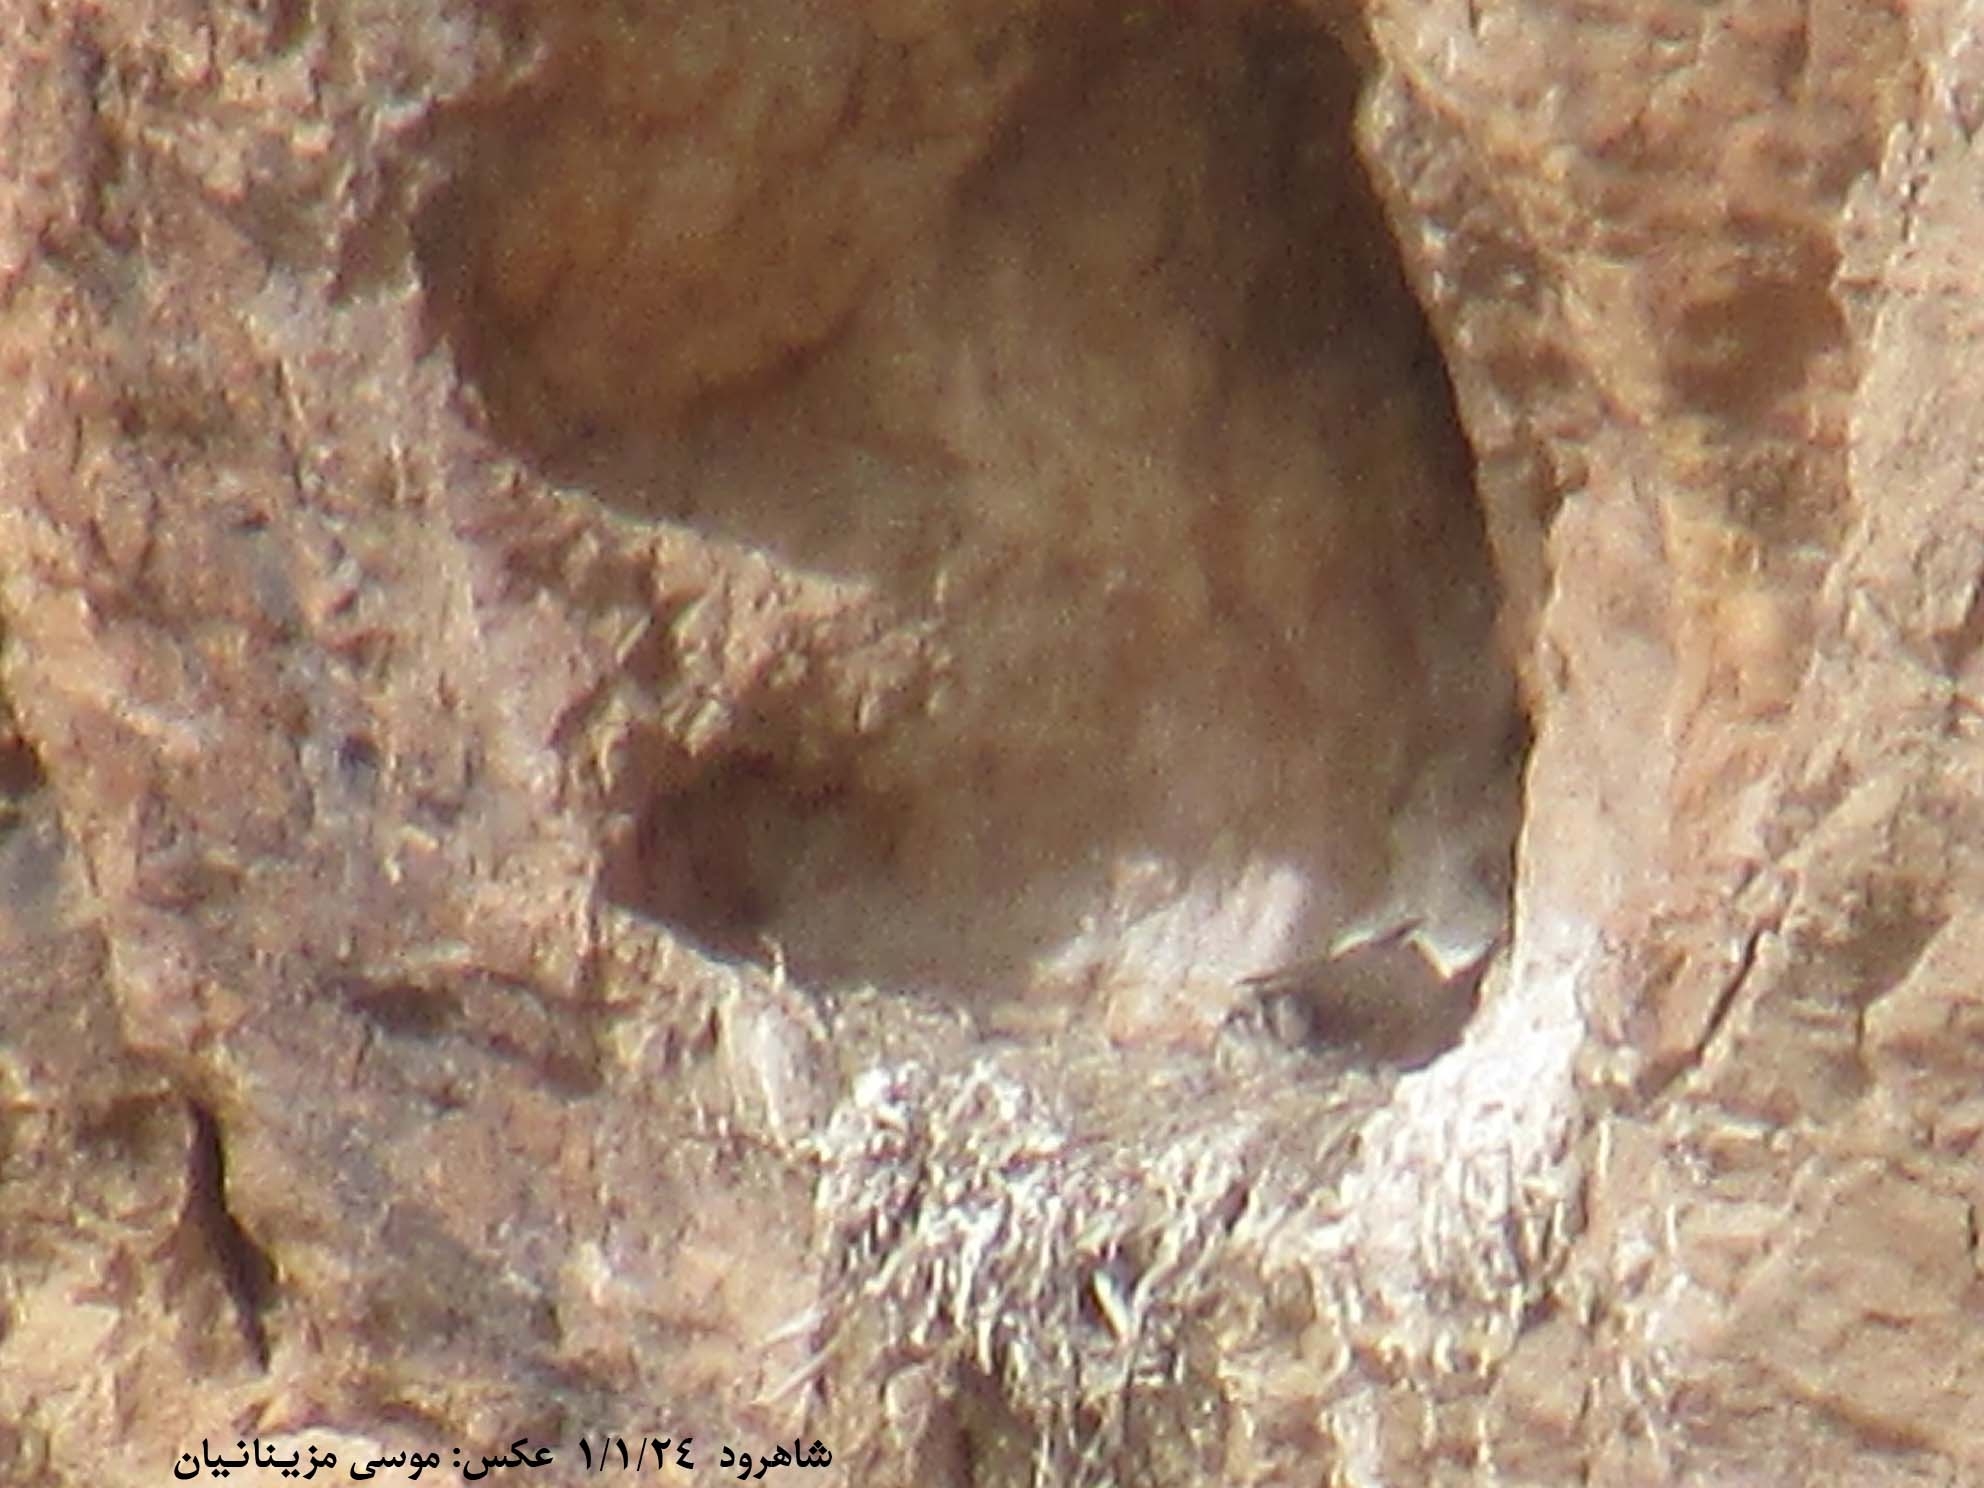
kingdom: Animalia
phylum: Chordata
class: Aves
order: Falconiformes
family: Falconidae
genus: Falco
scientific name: Falco cherrug
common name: Saker falcon
